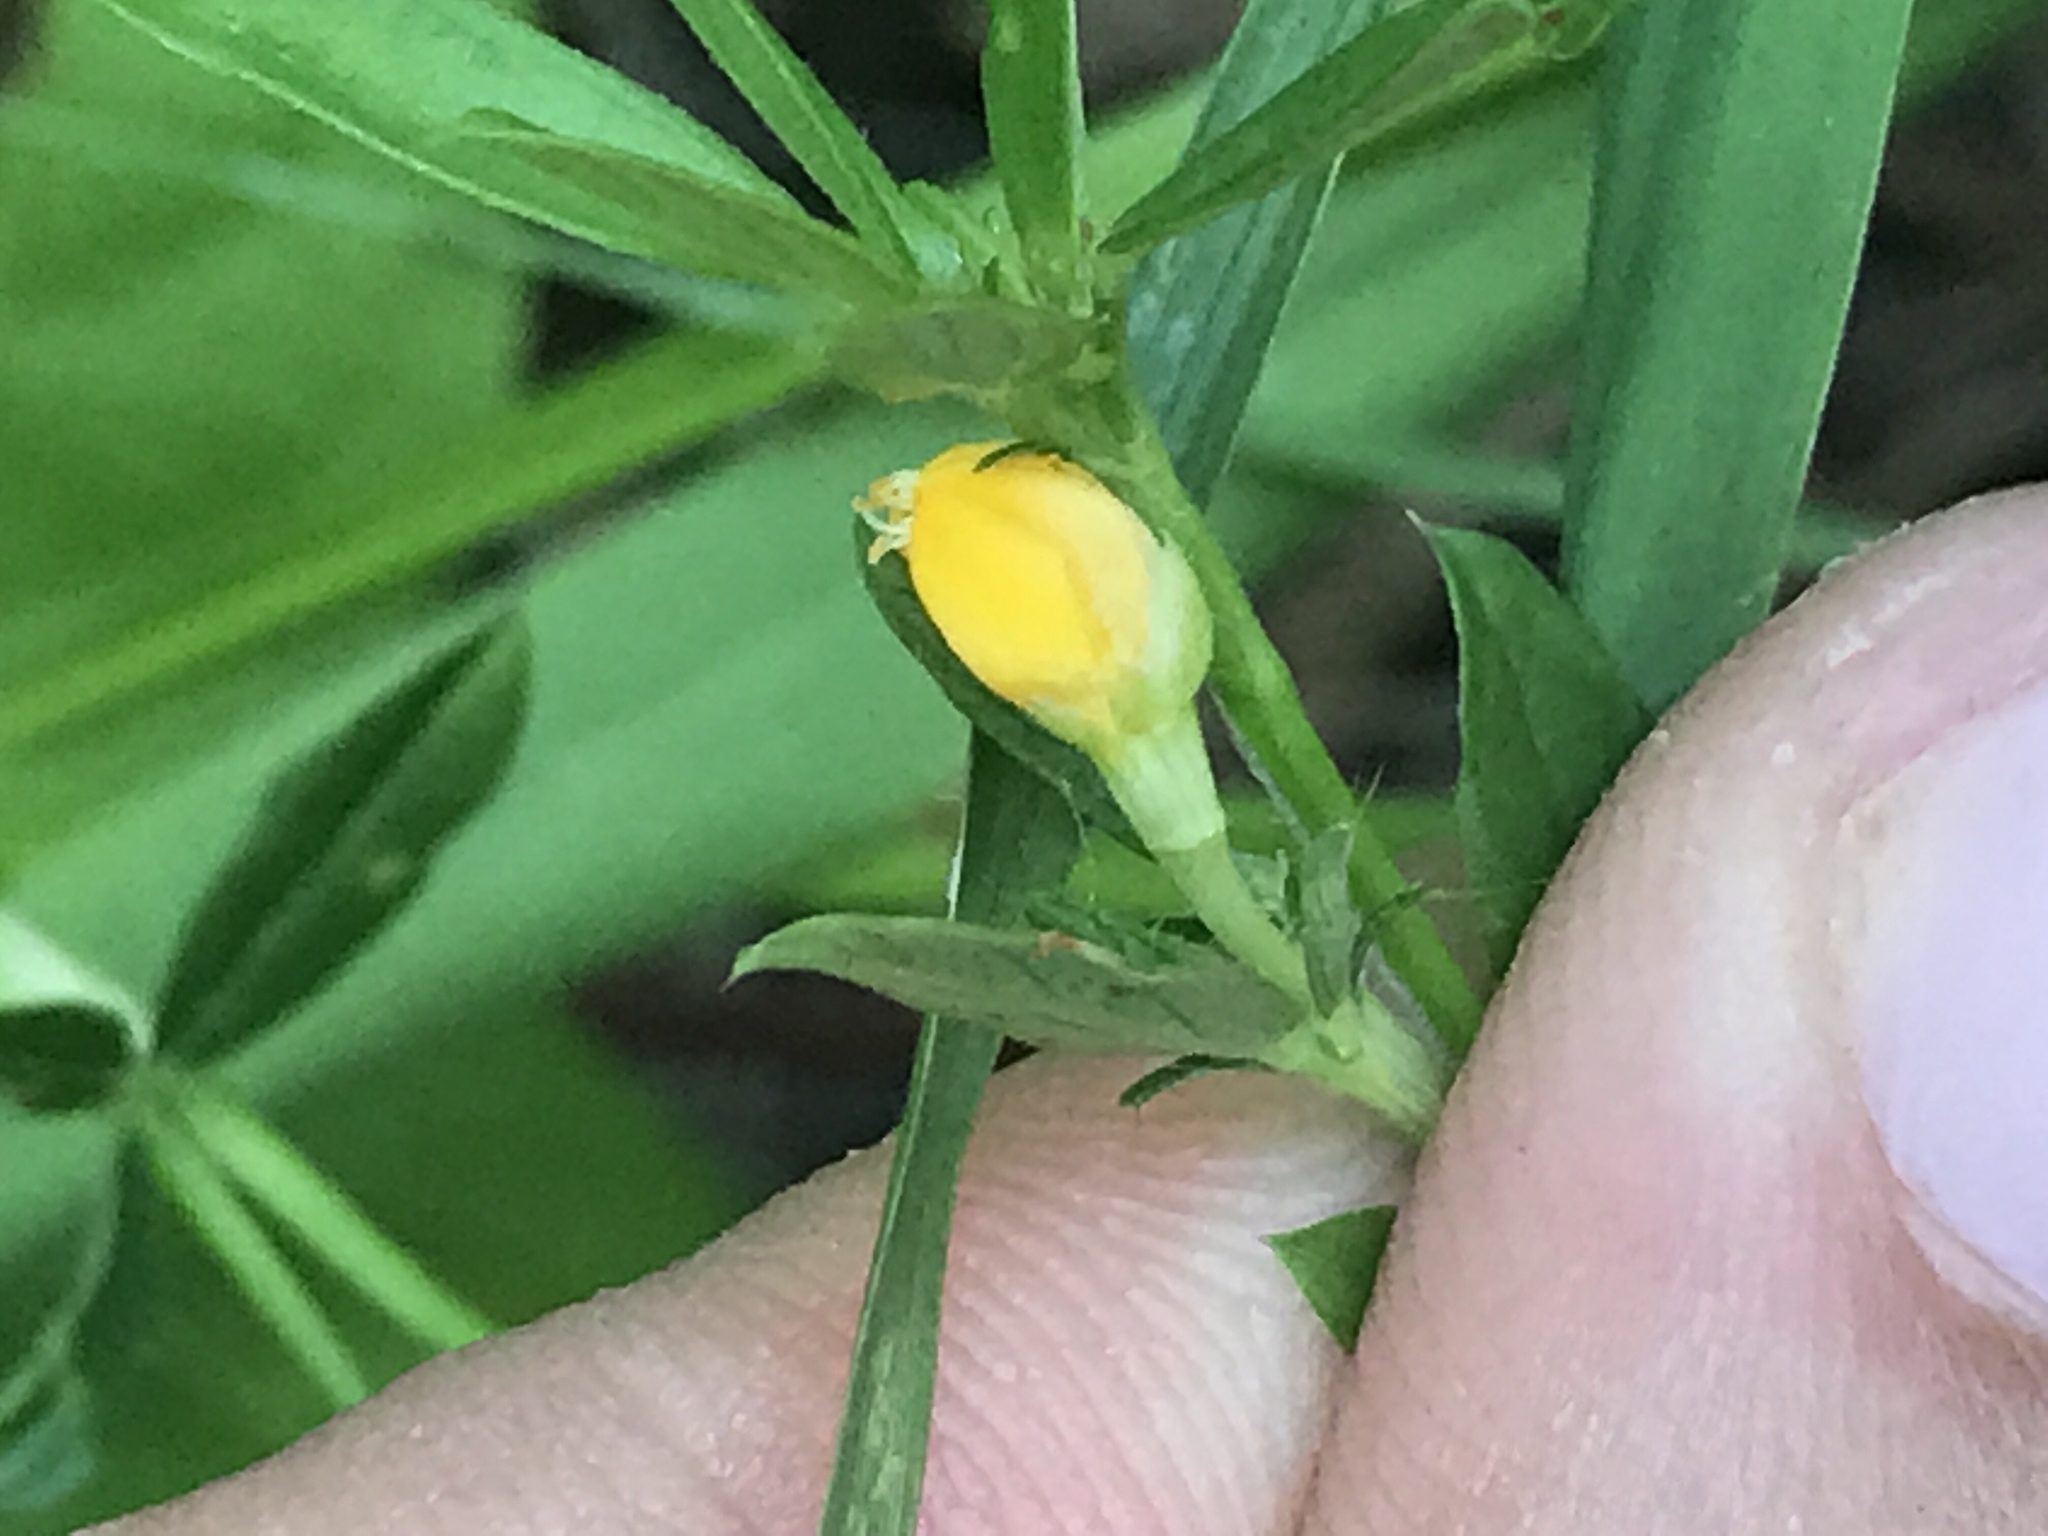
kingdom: Plantae
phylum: Tracheophyta
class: Magnoliopsida
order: Fabales
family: Fabaceae
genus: Stylosanthes
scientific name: Stylosanthes biflora
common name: Two-flower pencil-flower
